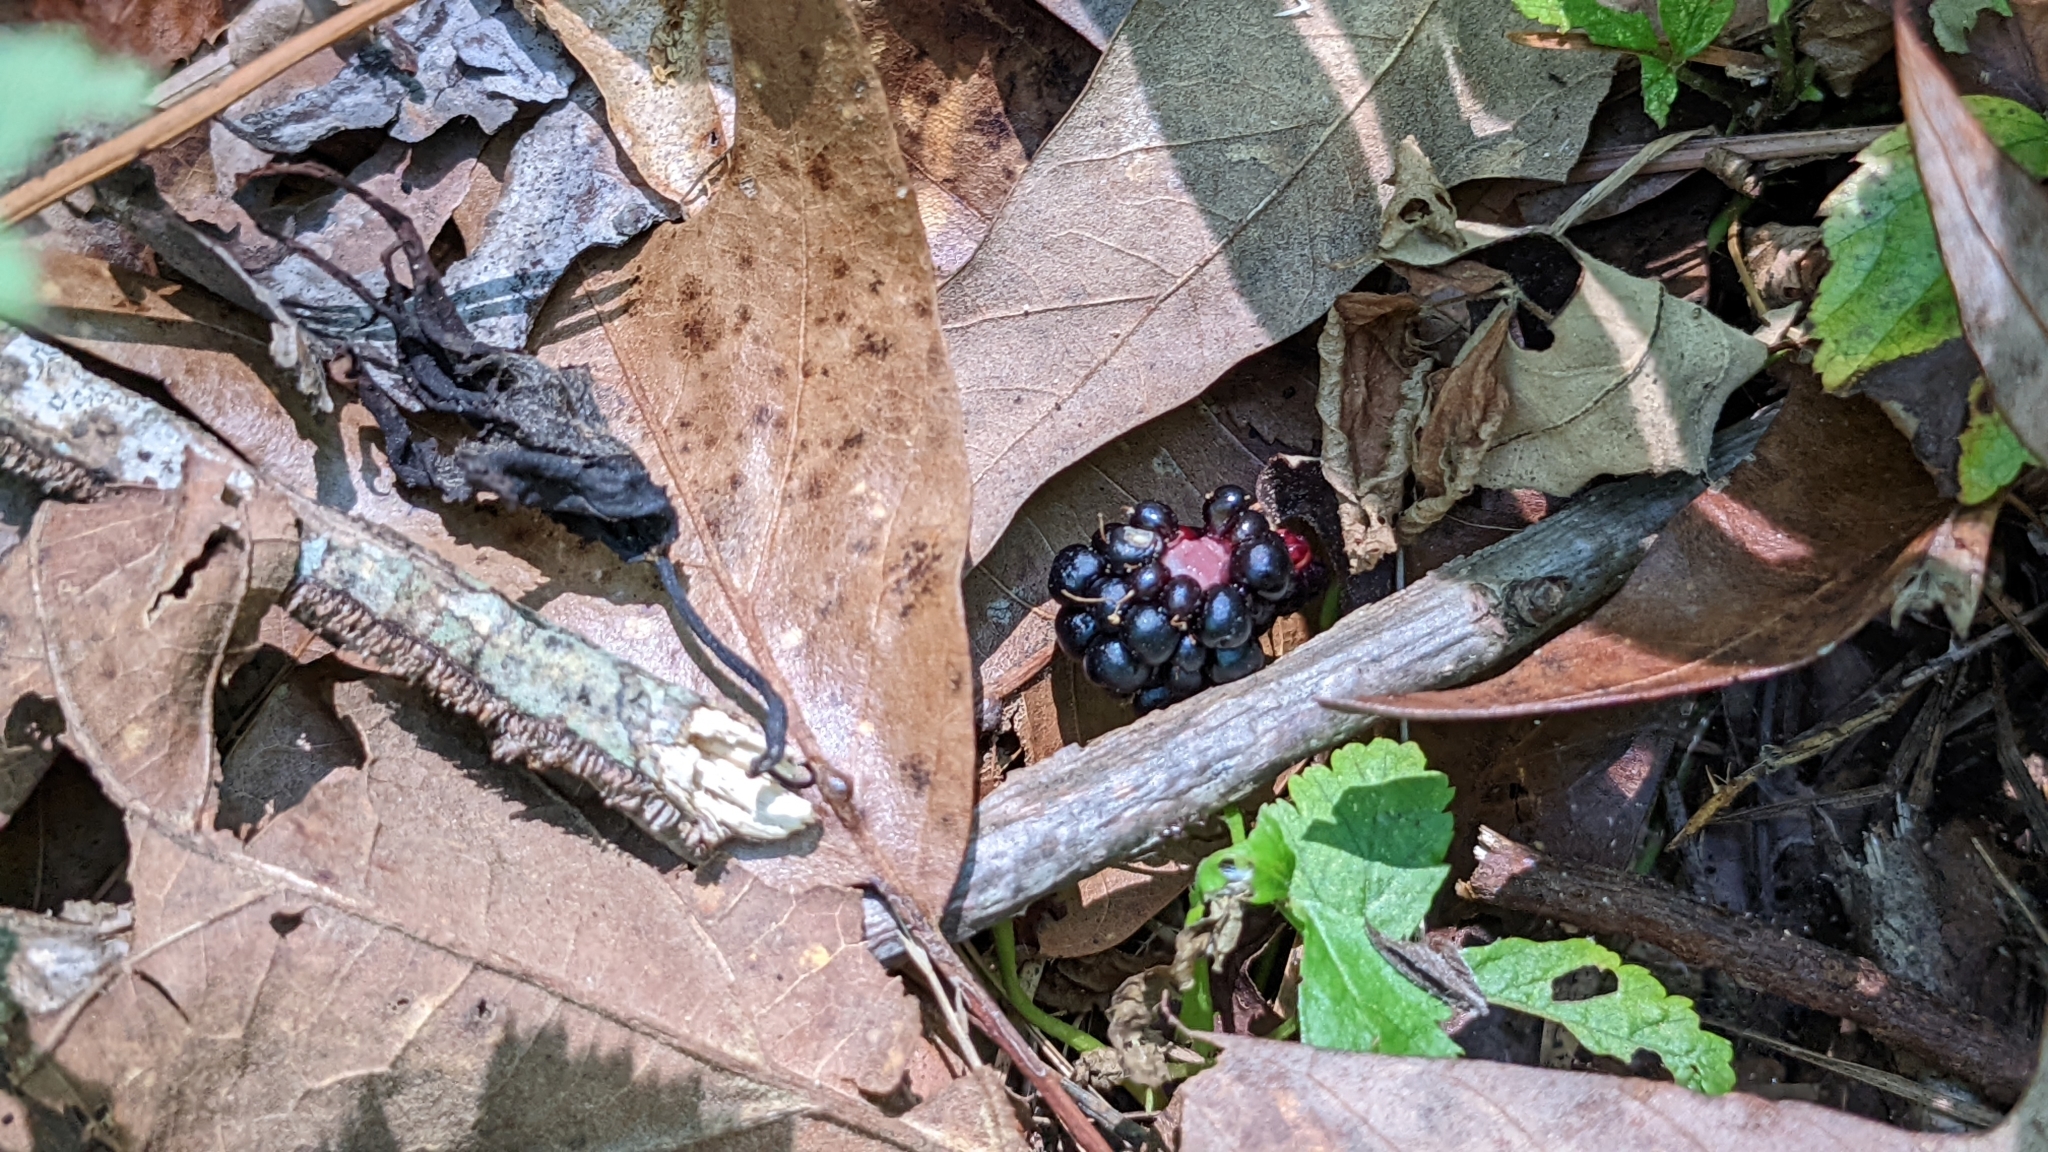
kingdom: Animalia
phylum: Chordata
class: Testudines
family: Emydidae
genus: Terrapene
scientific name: Terrapene carolina
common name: Common box turtle
